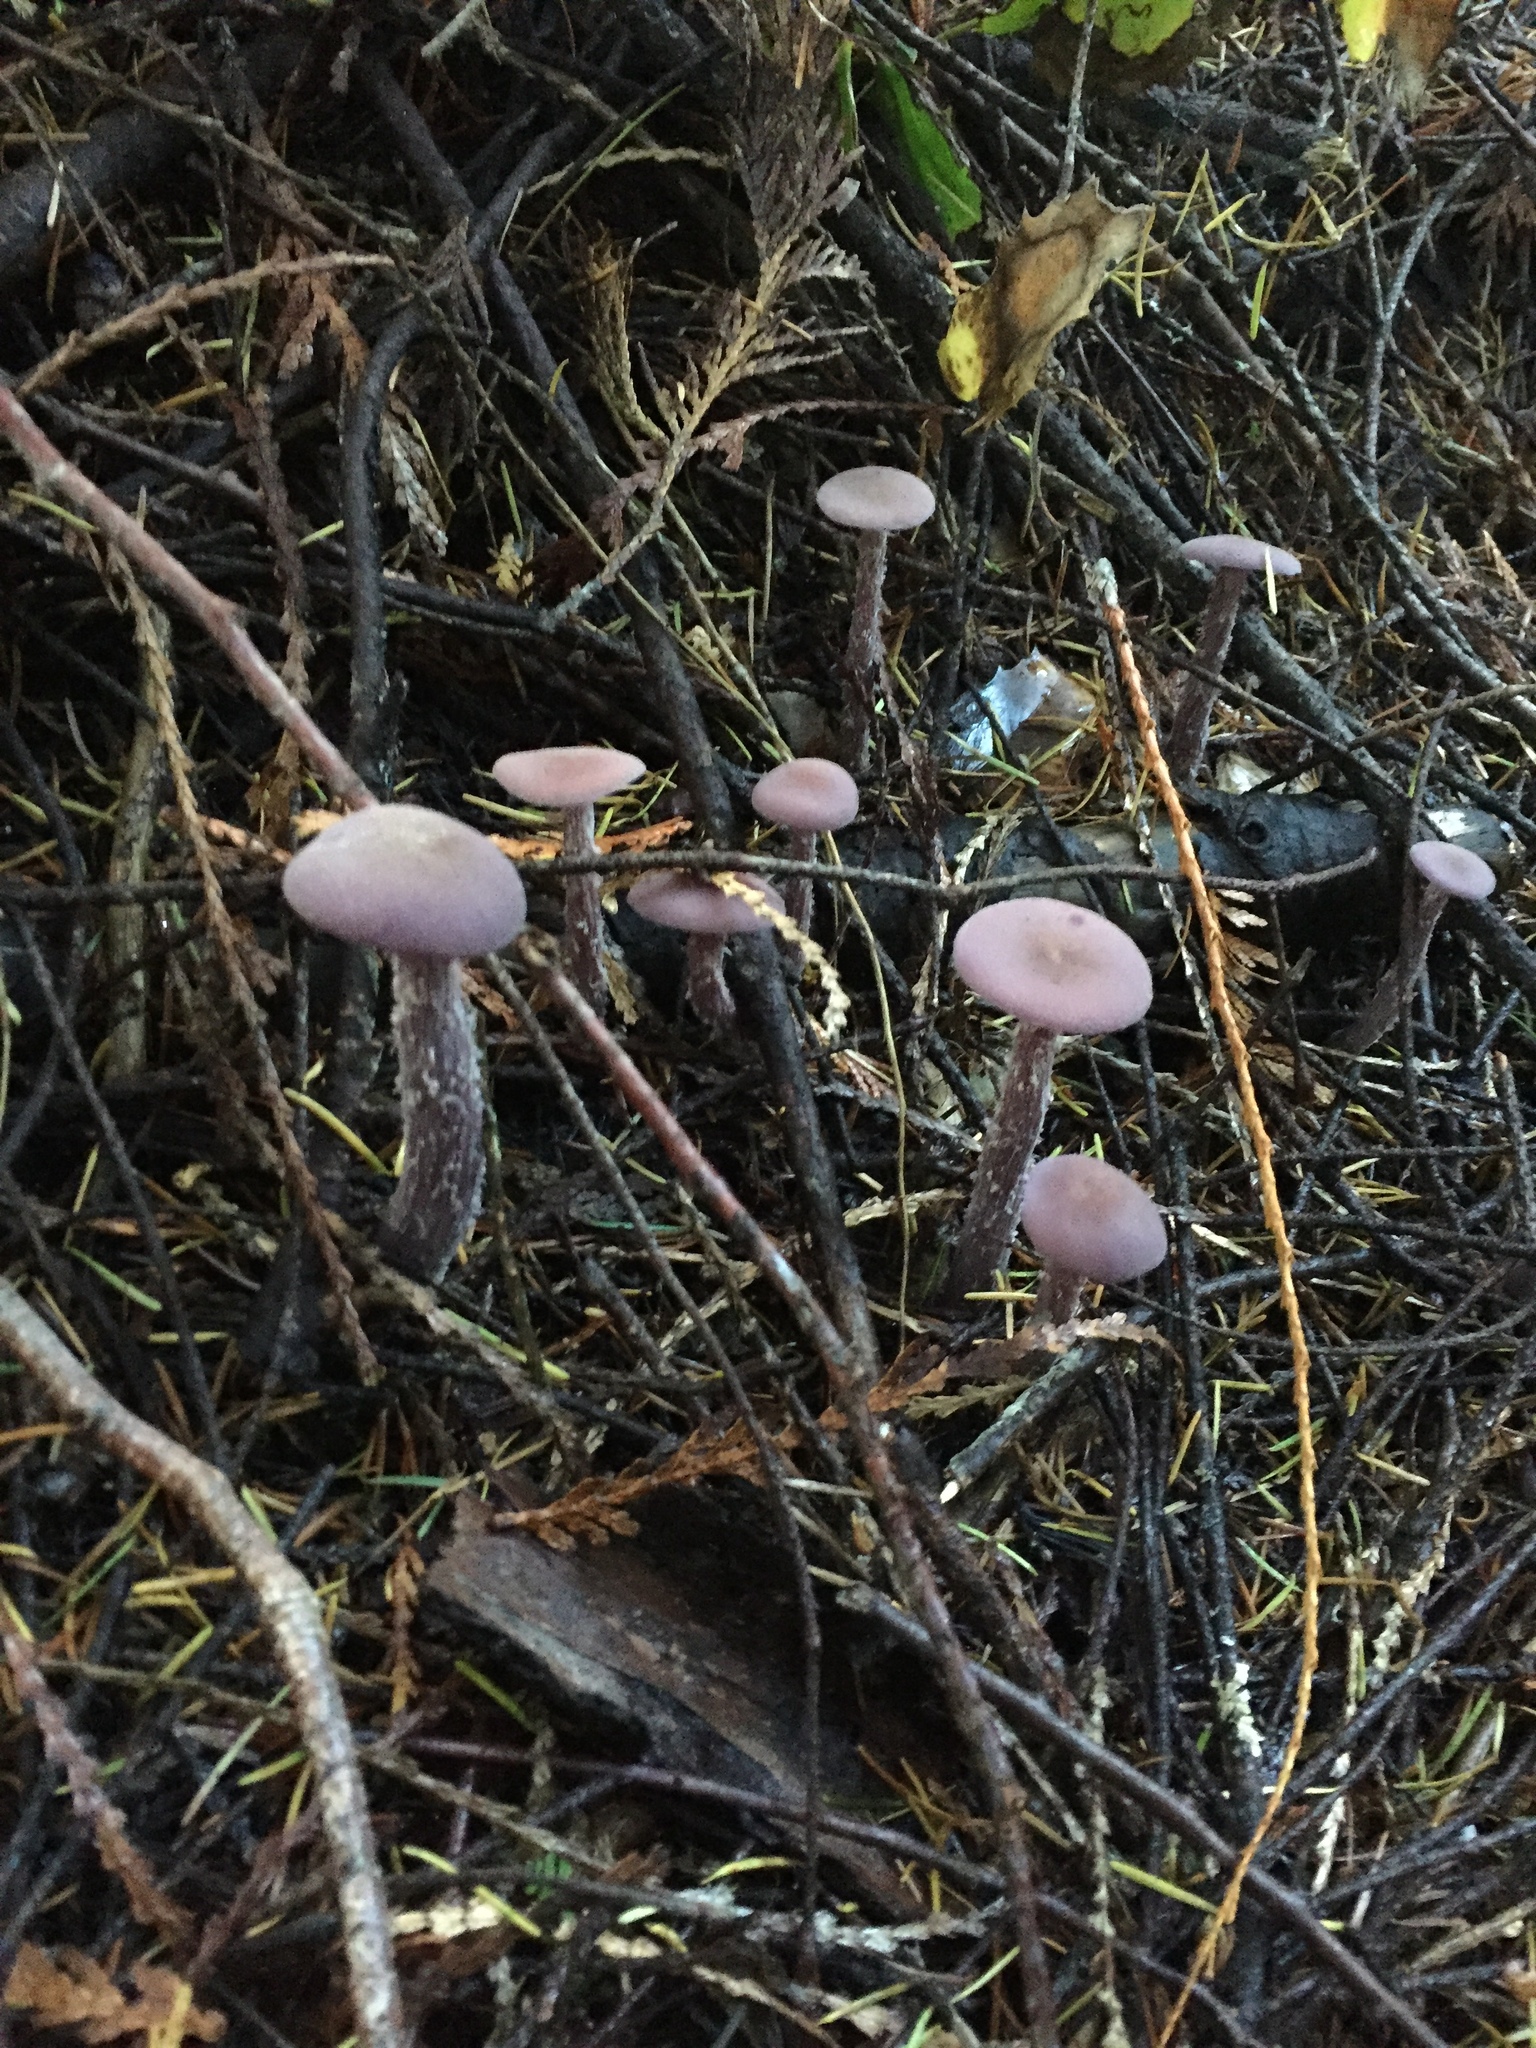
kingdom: Fungi
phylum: Basidiomycota
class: Agaricomycetes
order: Agaricales
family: Hydnangiaceae
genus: Laccaria
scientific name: Laccaria amethysteo-occidentalis
